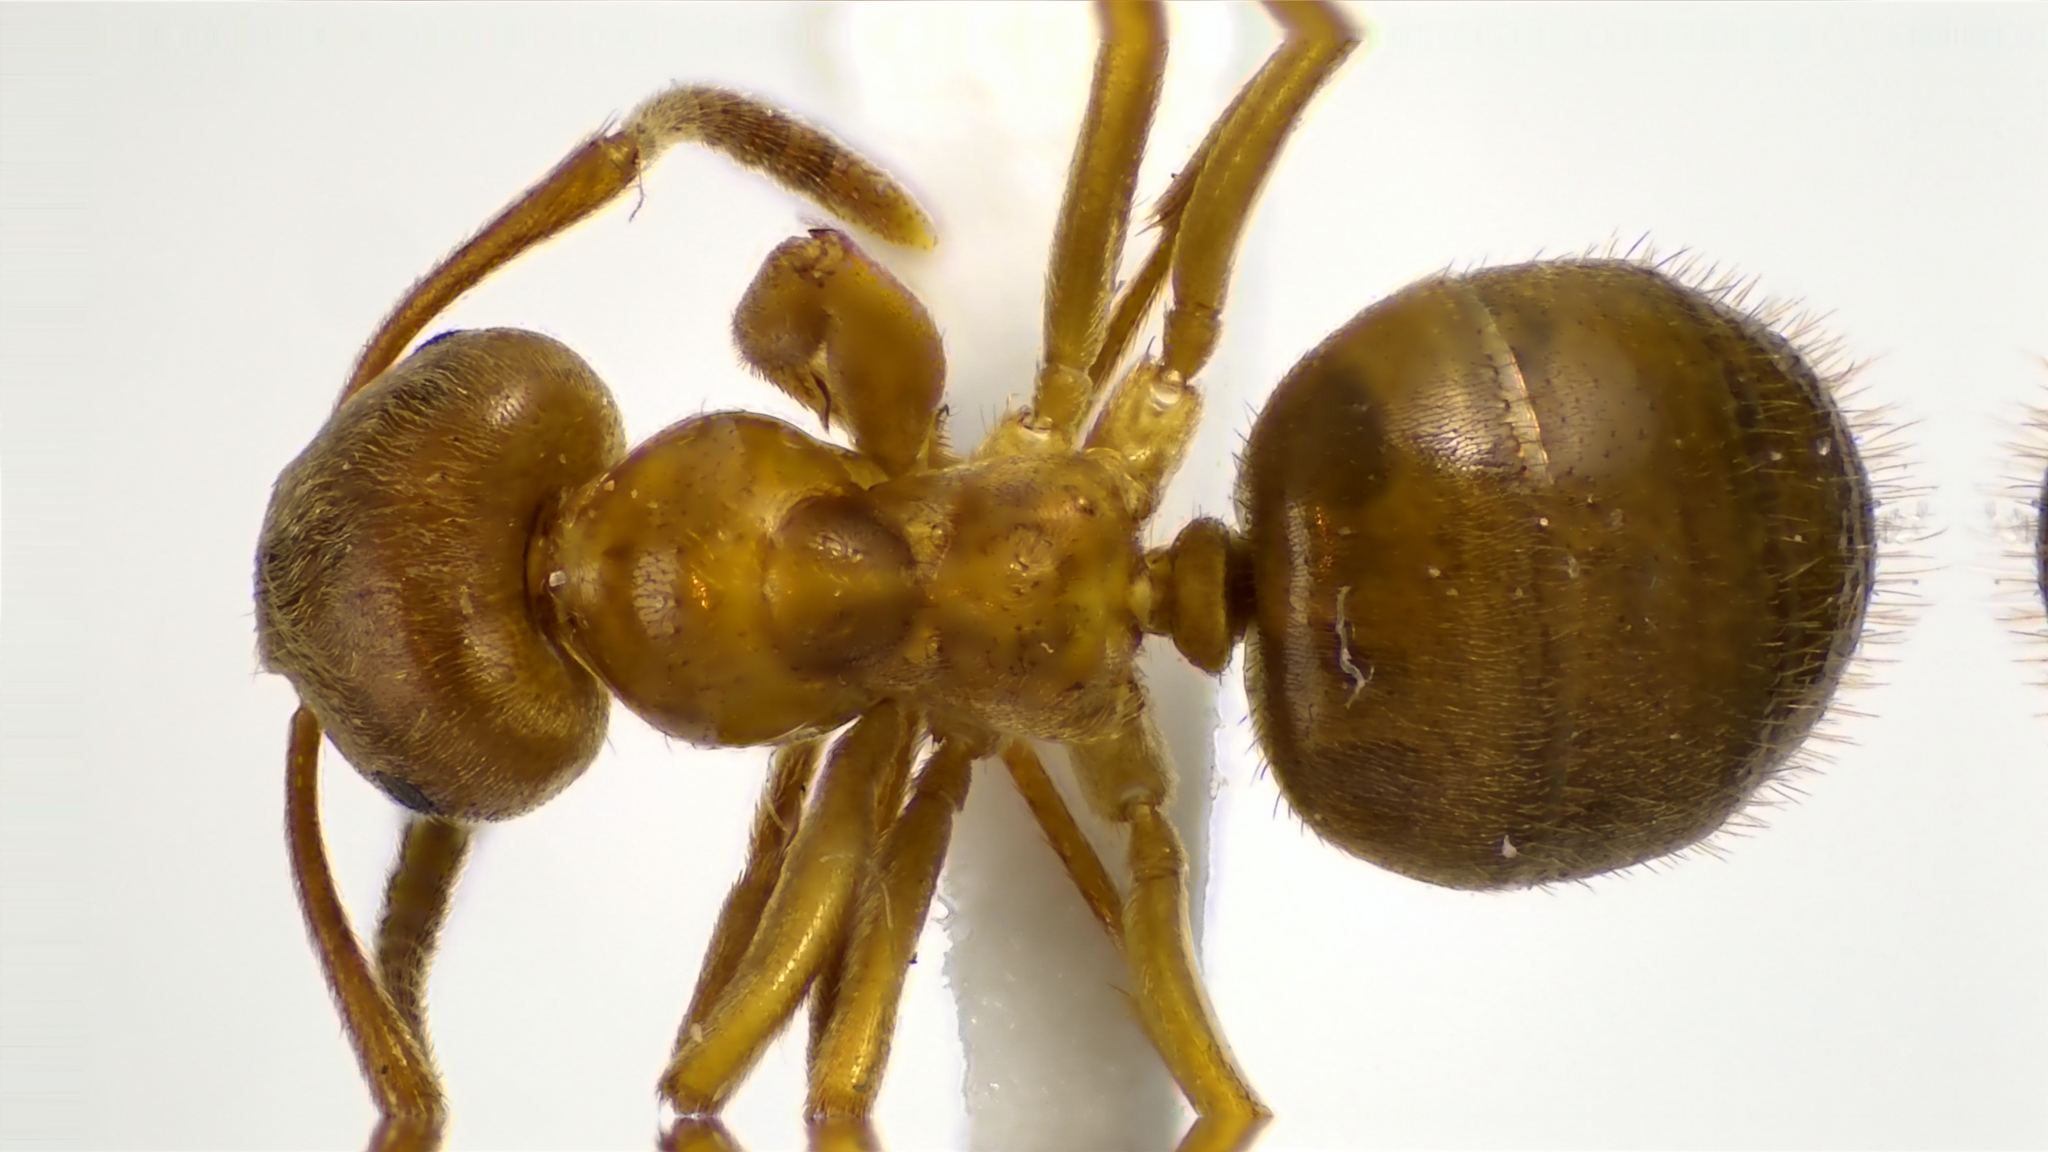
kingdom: Animalia
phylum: Arthropoda
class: Insecta
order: Hymenoptera
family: Formicidae
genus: Lasius
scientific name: Lasius aphidicola
